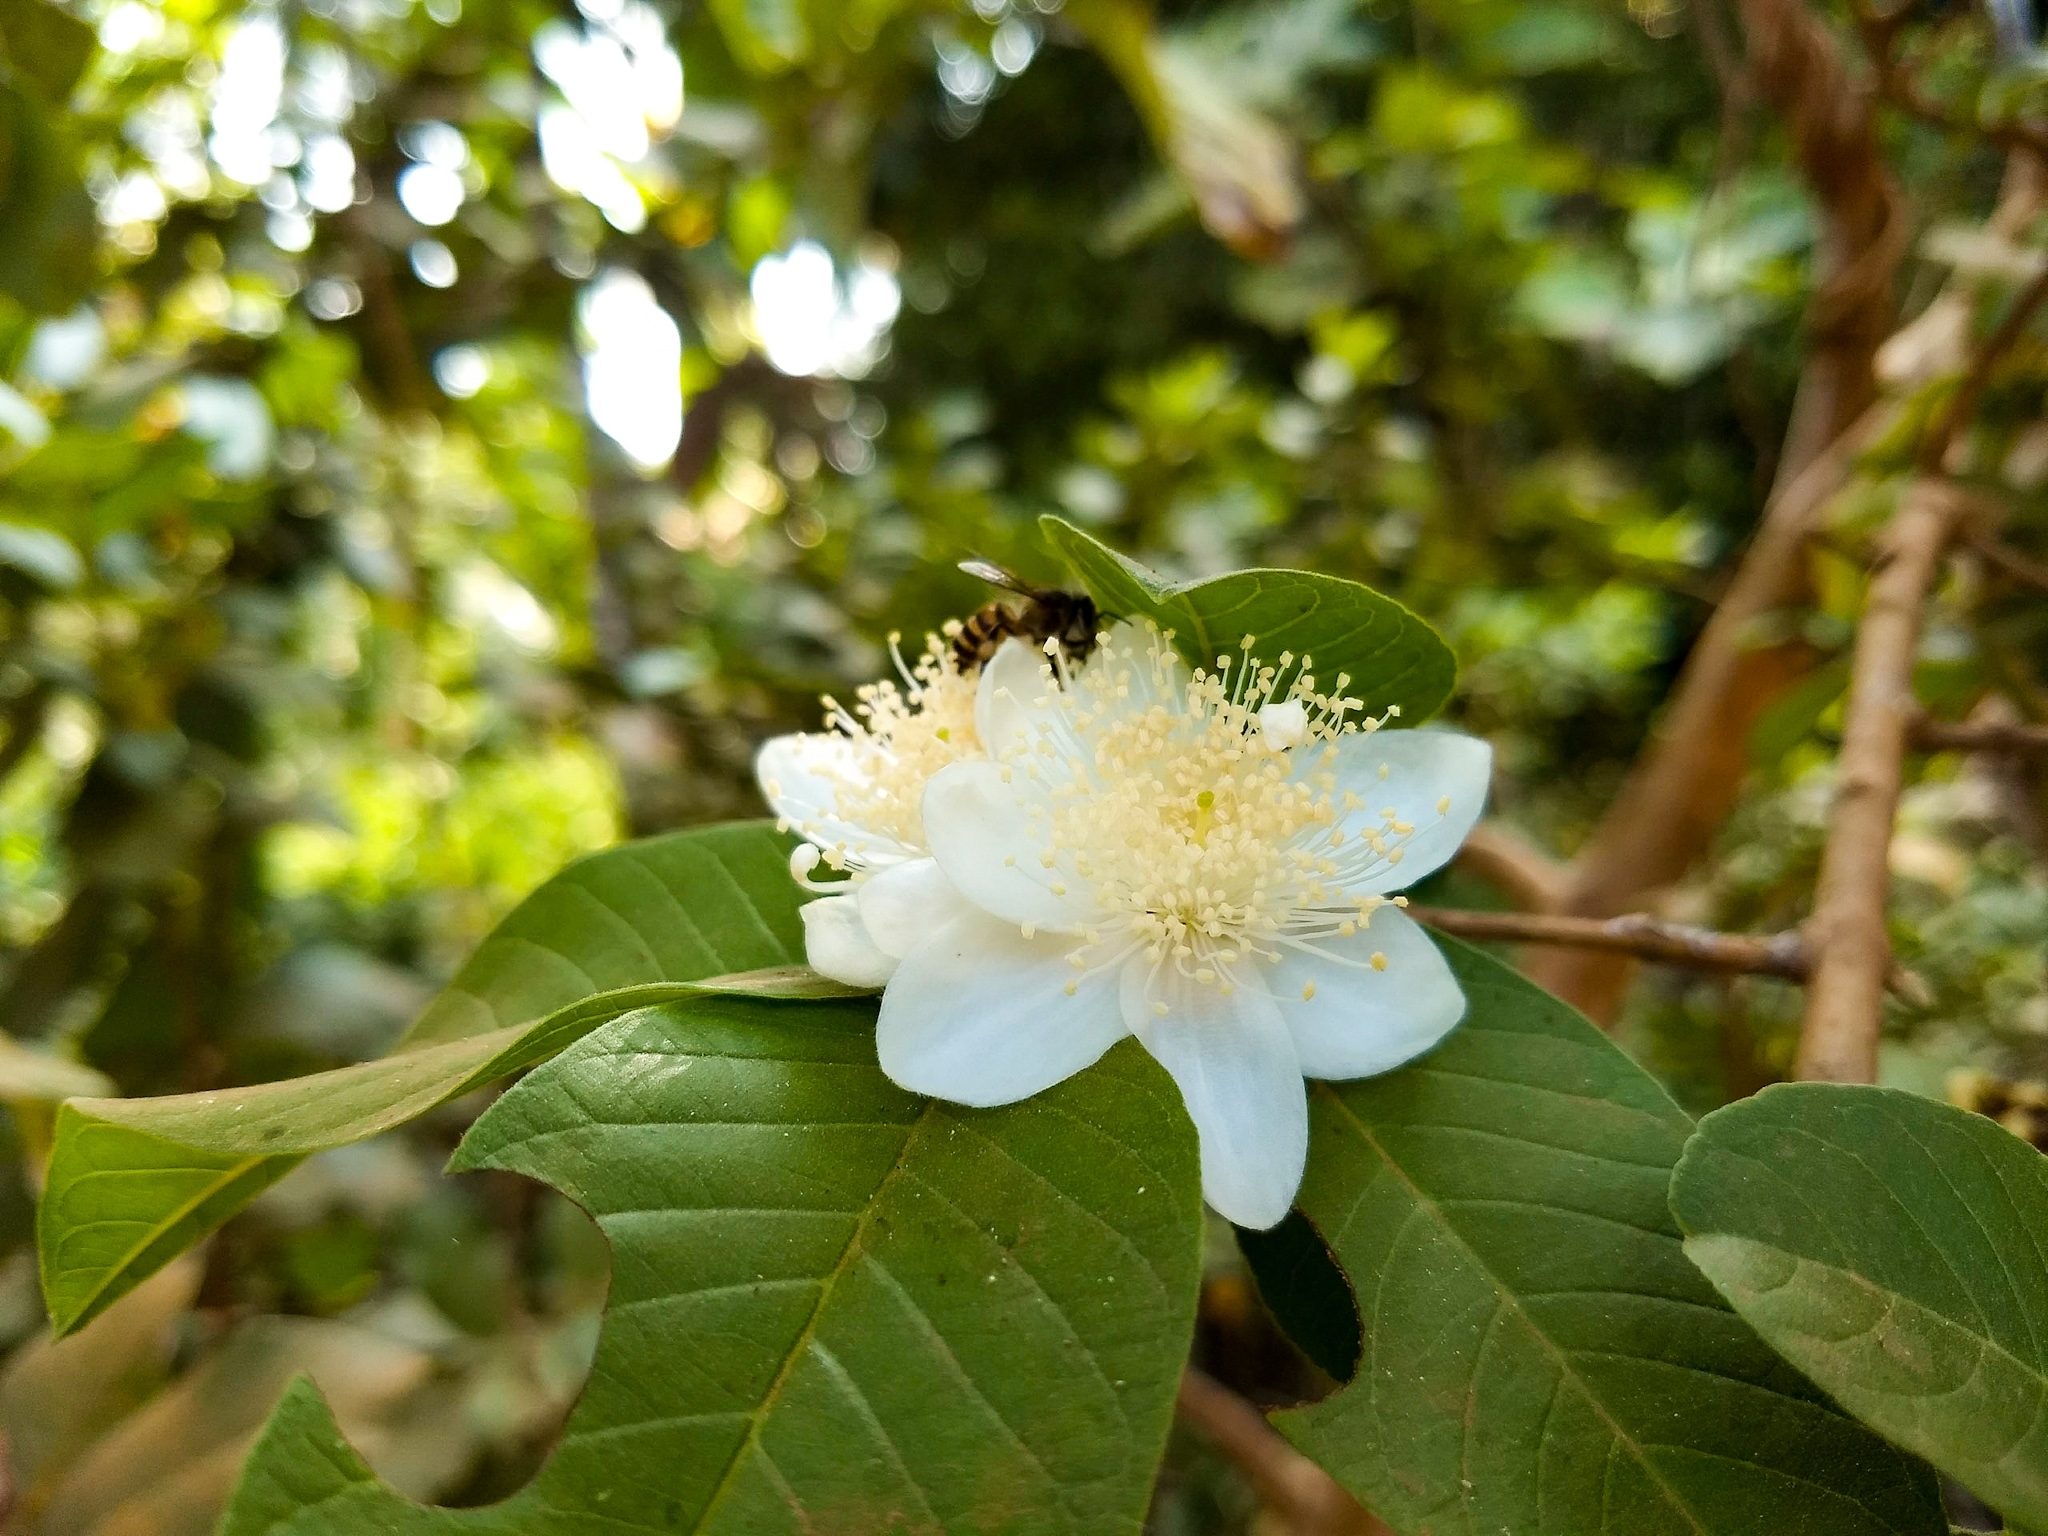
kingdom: Plantae
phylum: Tracheophyta
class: Magnoliopsida
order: Myrtales
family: Myrtaceae
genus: Psidium
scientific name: Psidium guajava
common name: Guava
